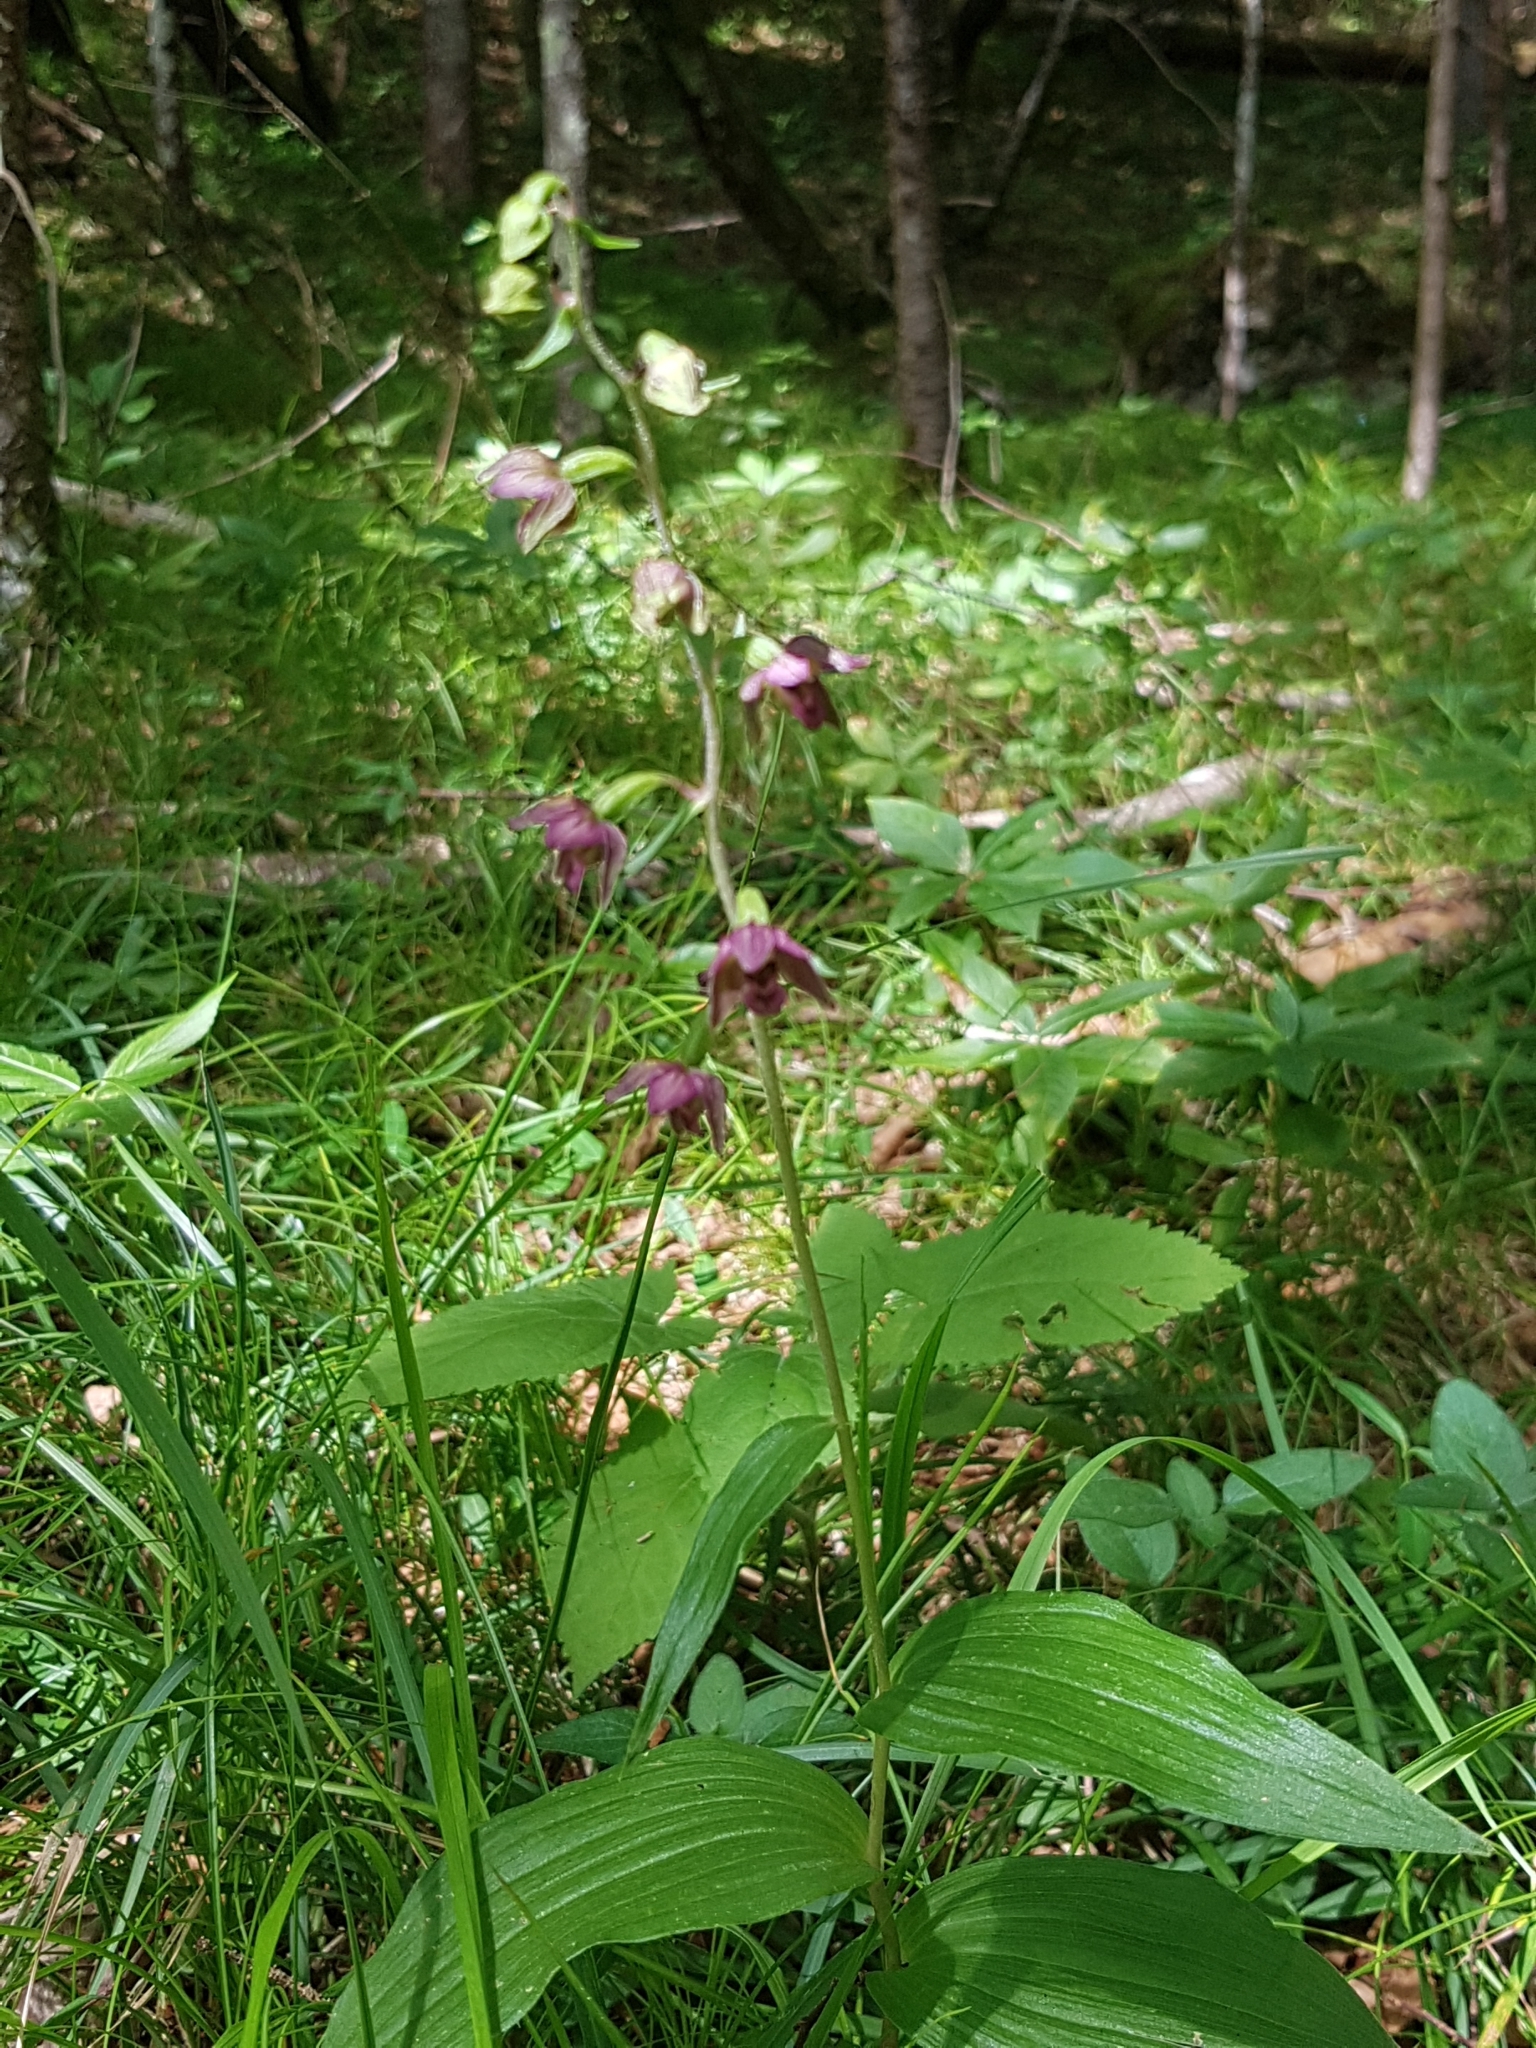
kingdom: Plantae
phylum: Tracheophyta
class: Liliopsida
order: Asparagales
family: Orchidaceae
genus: Epipactis
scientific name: Epipactis atrorubens
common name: Dark-red helleborine
